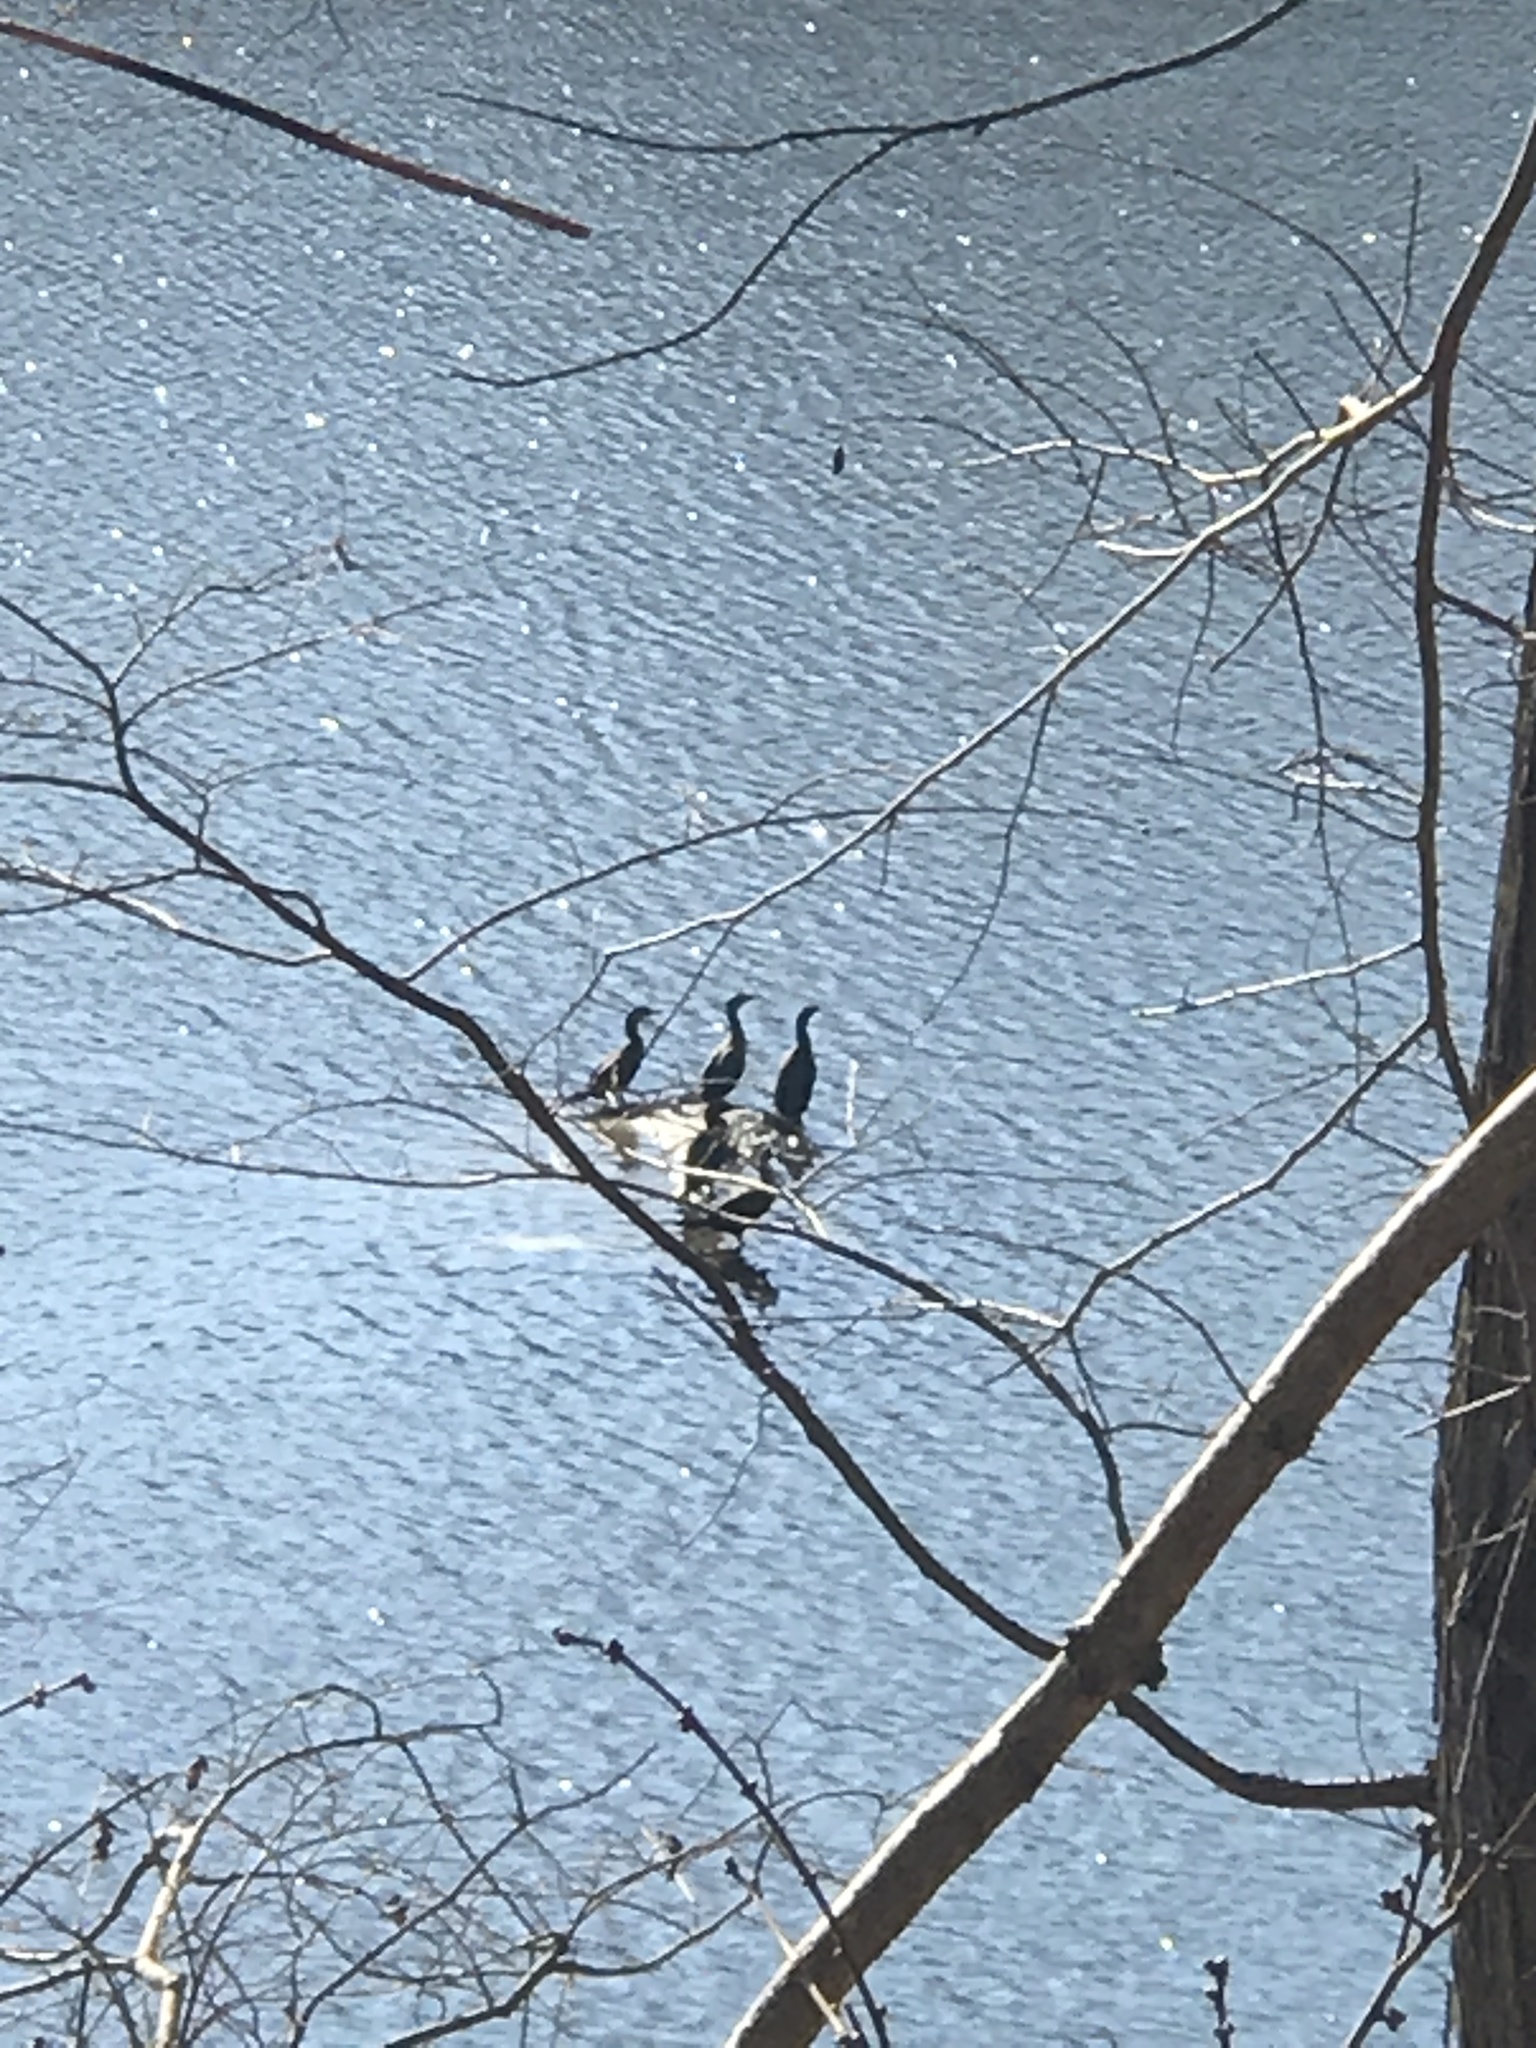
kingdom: Animalia
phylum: Chordata
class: Aves
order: Suliformes
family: Phalacrocoracidae
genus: Phalacrocorax
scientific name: Phalacrocorax auritus
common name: Double-crested cormorant
